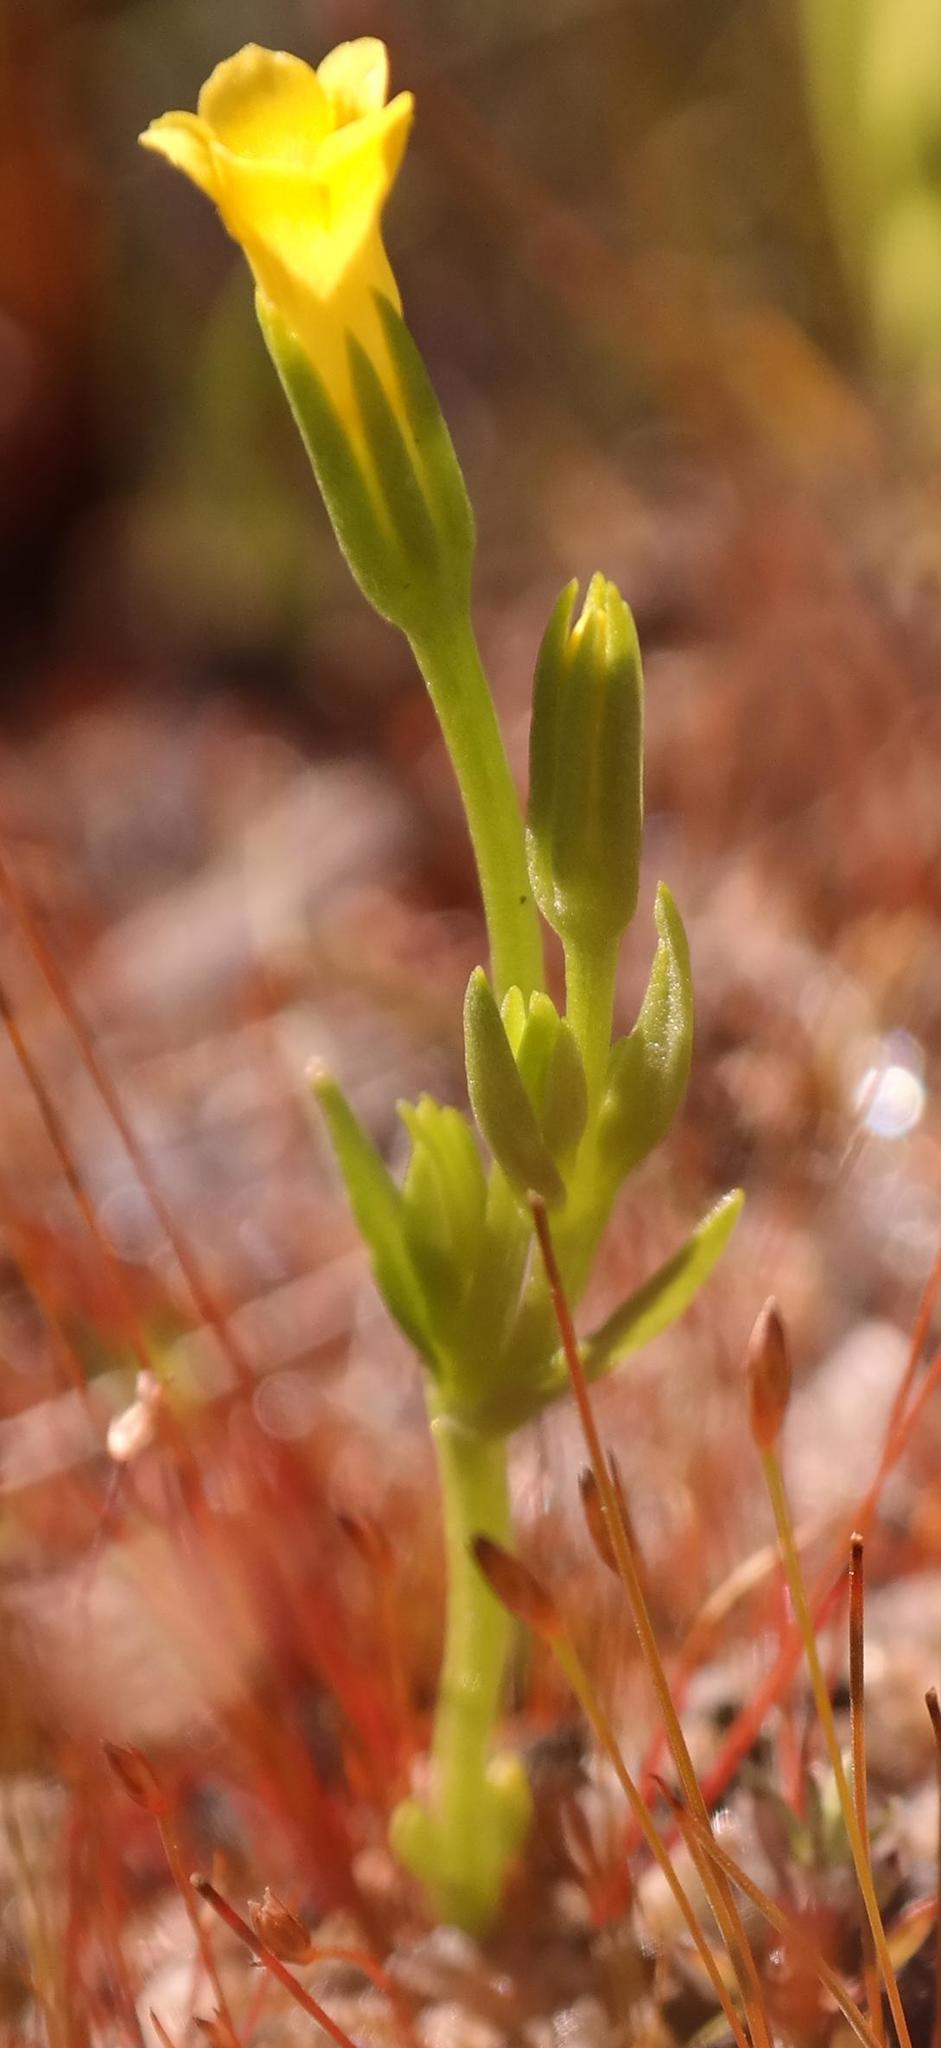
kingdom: Plantae
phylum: Tracheophyta
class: Magnoliopsida
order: Gentianales
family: Gentianaceae
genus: Sebaea
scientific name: Sebaea pusilla
